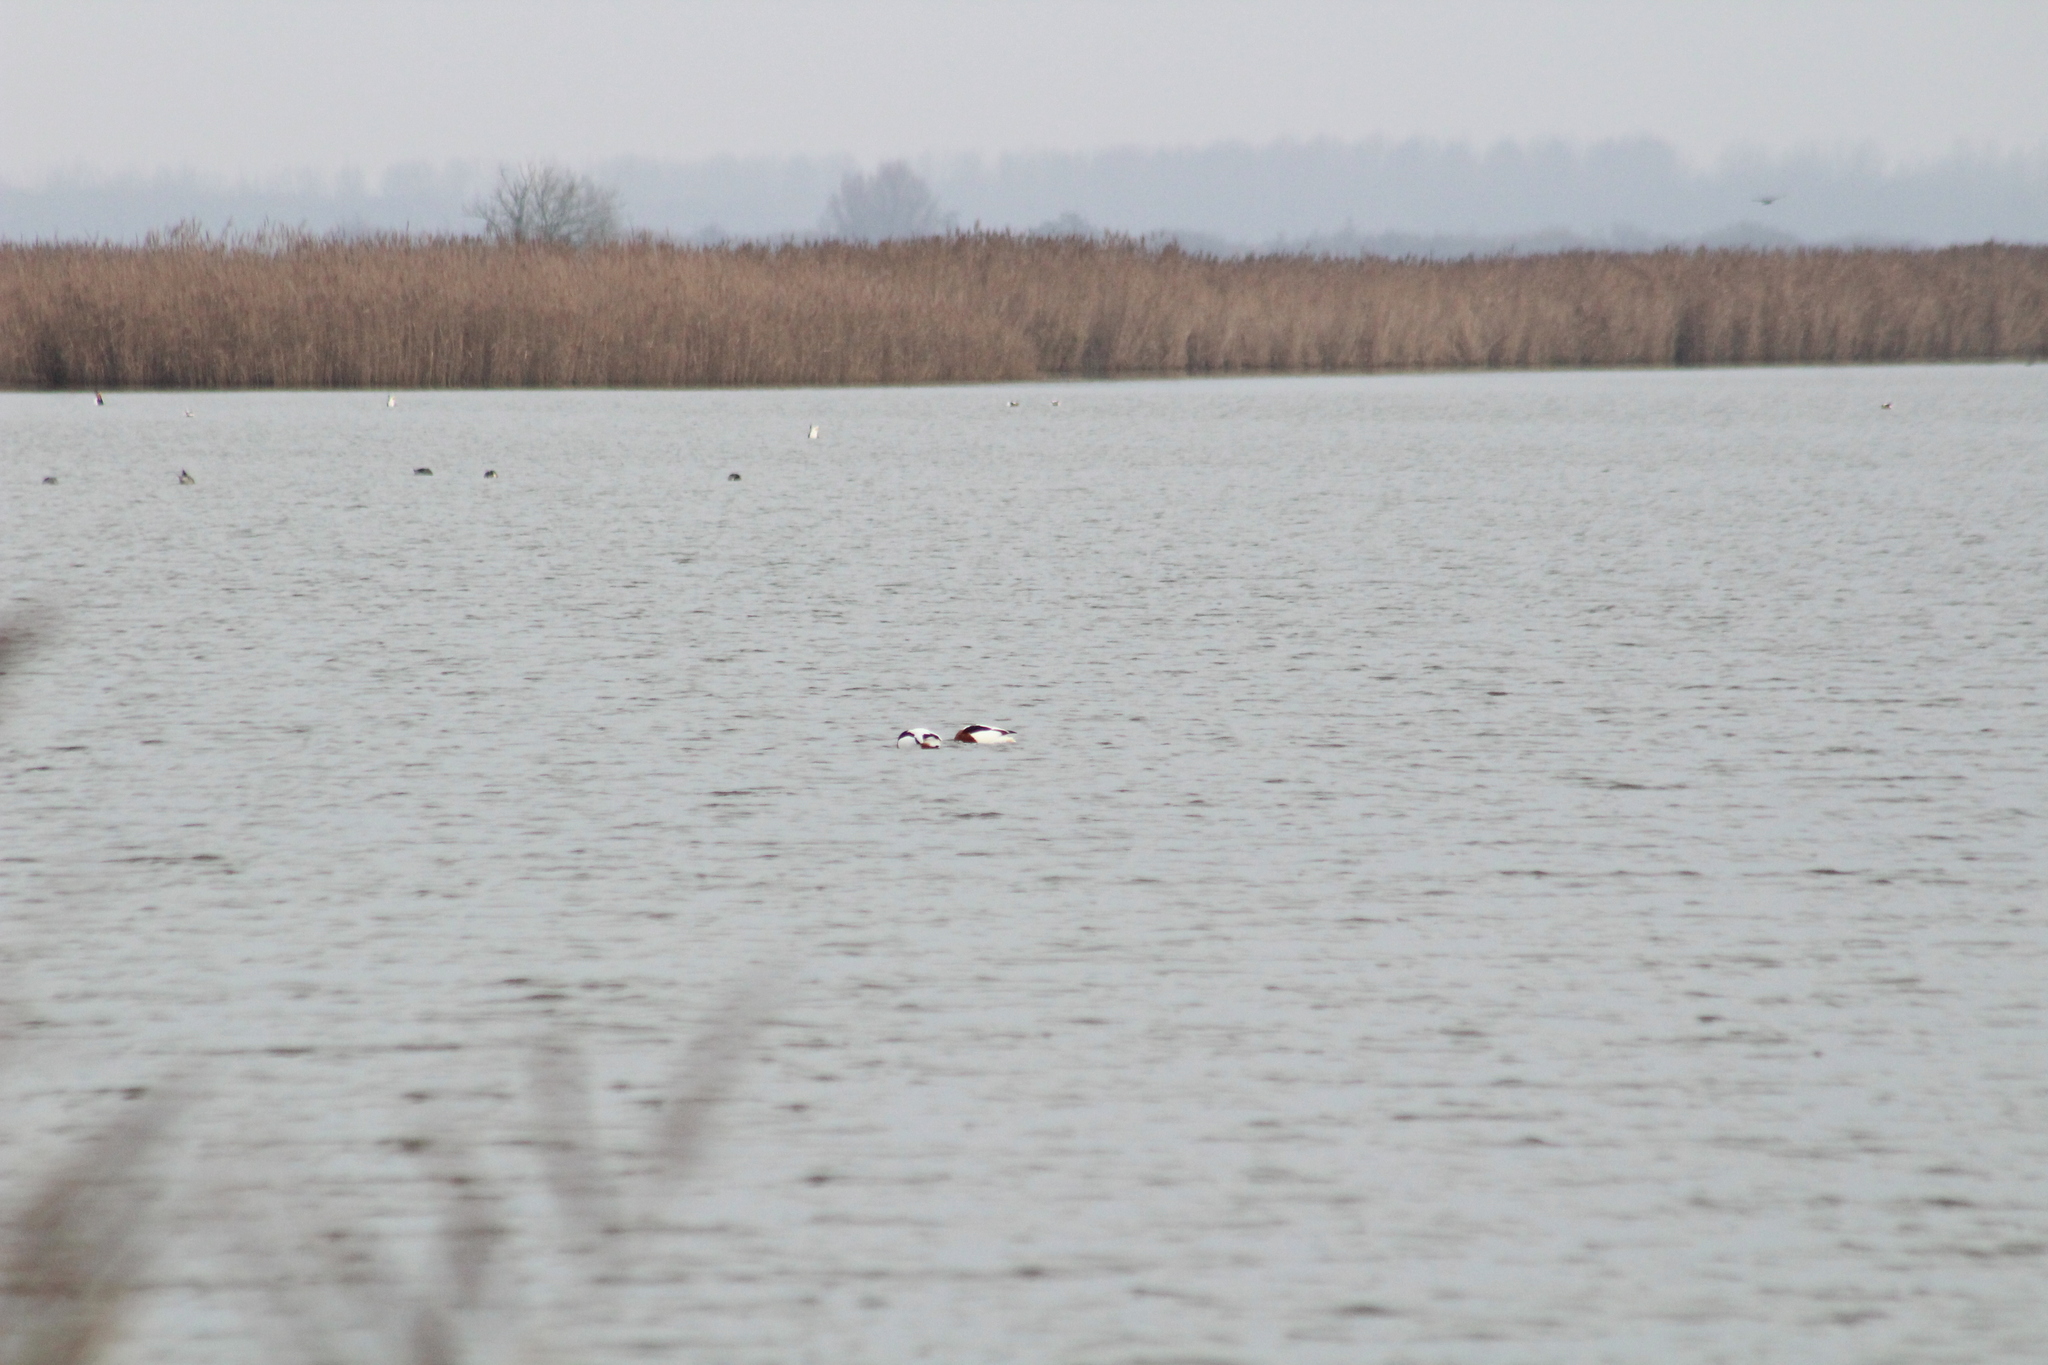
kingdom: Animalia
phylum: Chordata
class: Aves
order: Anseriformes
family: Anatidae
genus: Tadorna
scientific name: Tadorna tadorna
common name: Common shelduck
